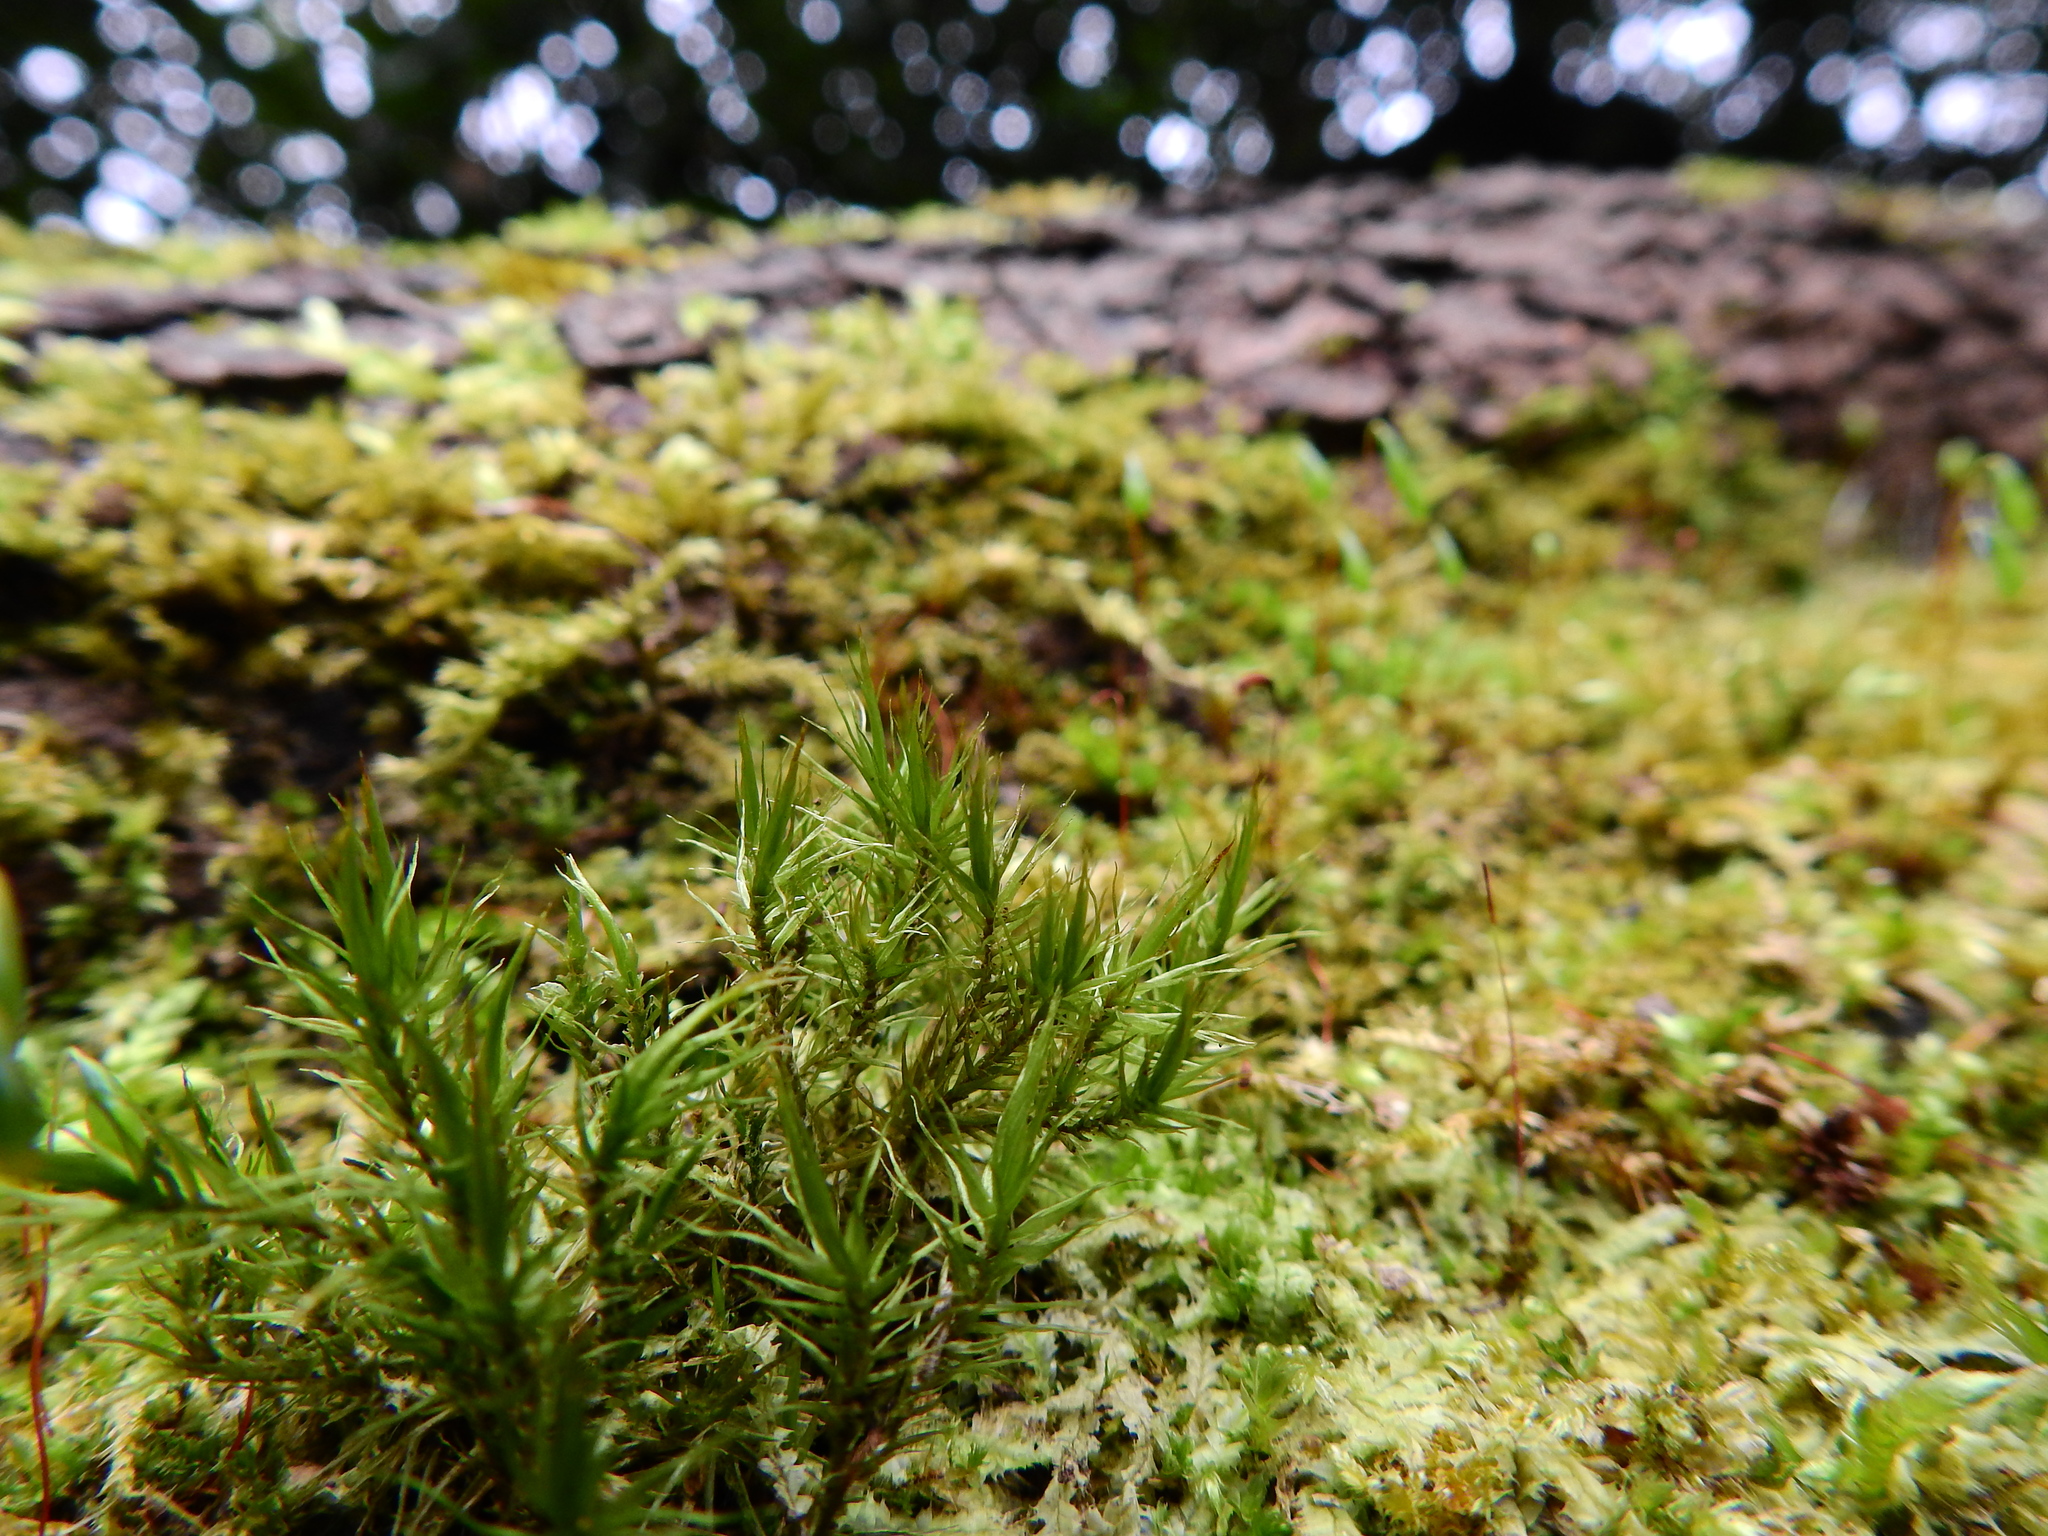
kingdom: Plantae
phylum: Bryophyta
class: Bryopsida
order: Dicranales
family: Dicranaceae
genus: Dicranum
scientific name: Dicranum scoparium
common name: Broom fork-moss
